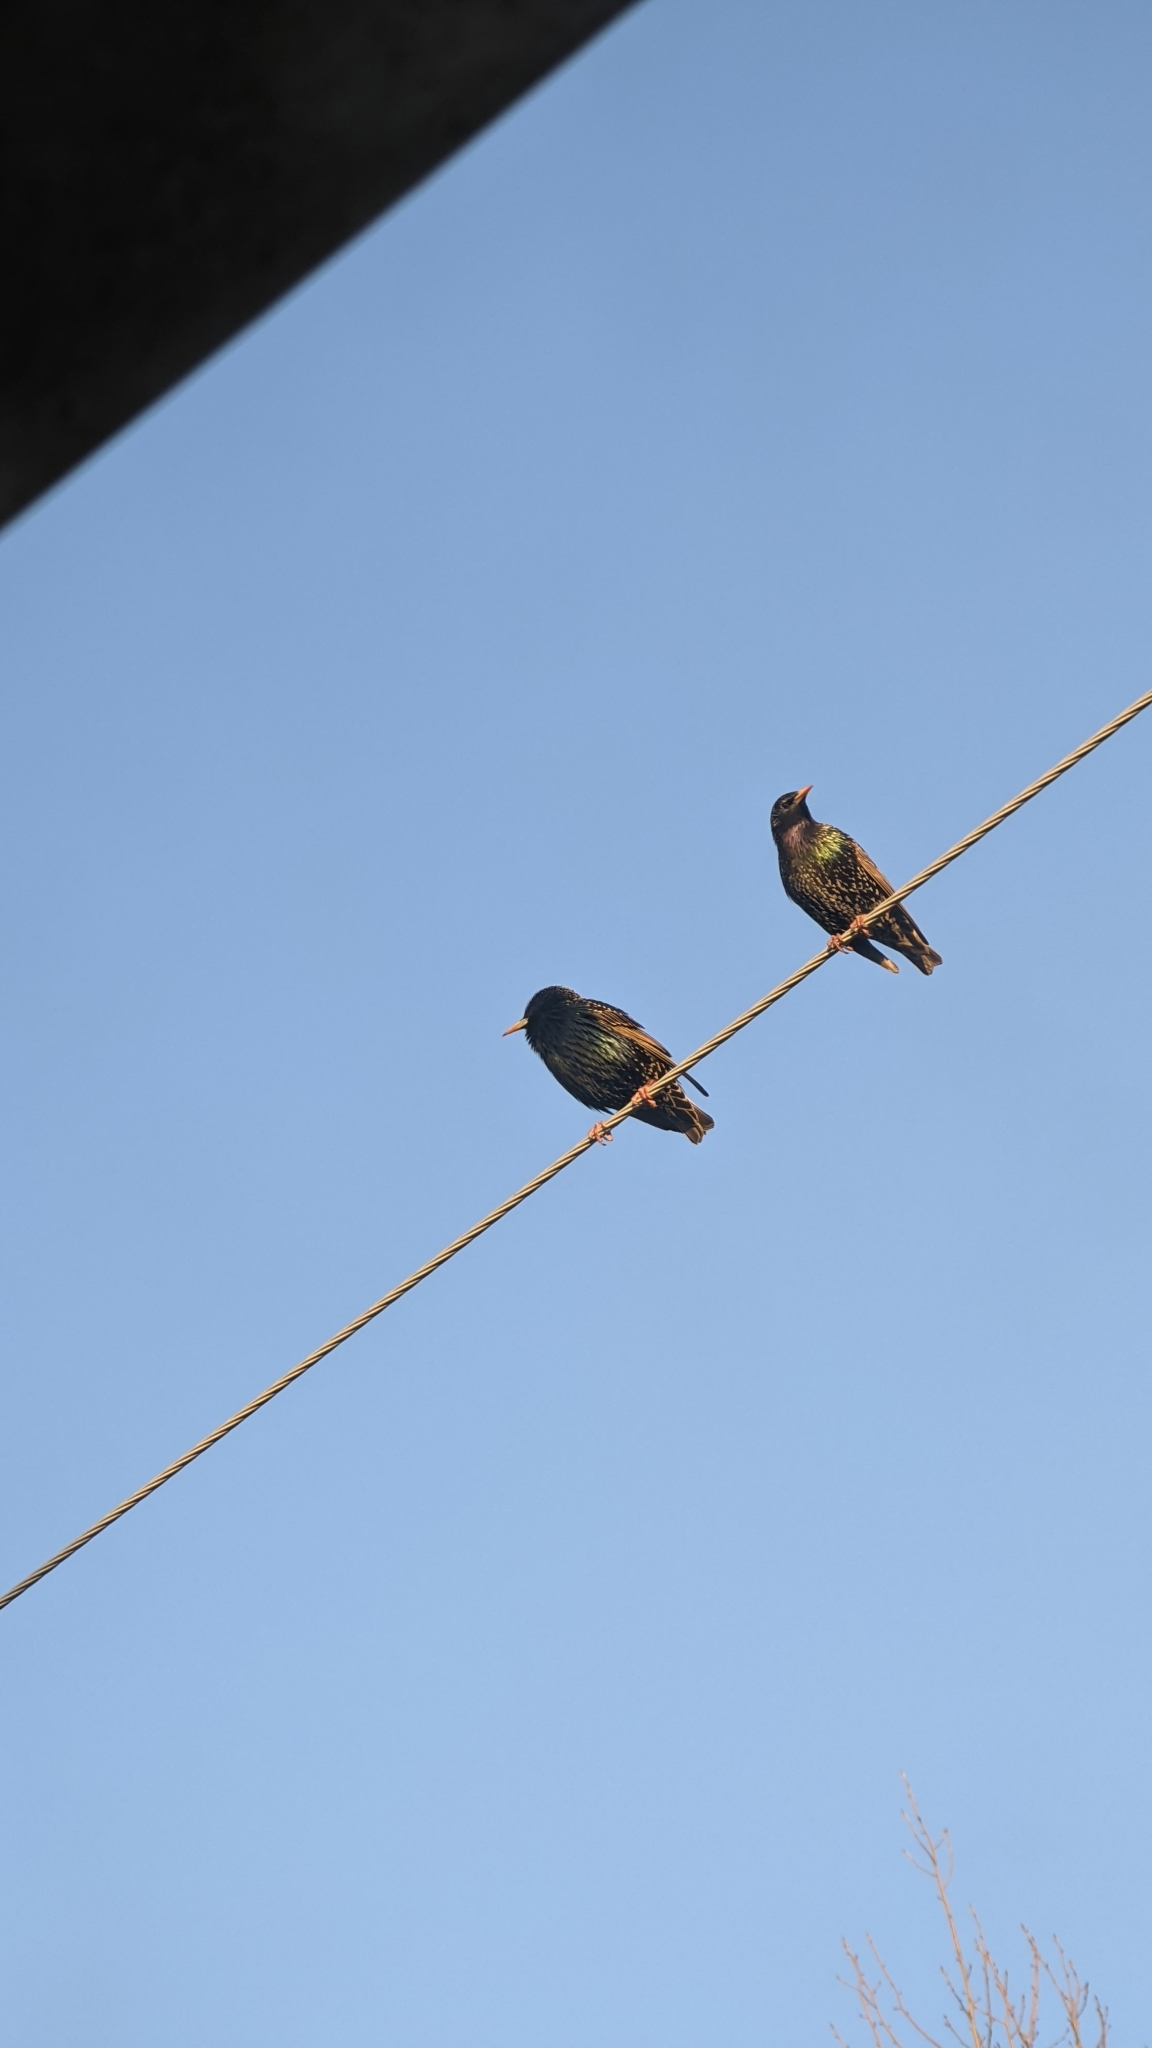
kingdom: Animalia
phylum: Chordata
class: Aves
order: Passeriformes
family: Sturnidae
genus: Sturnus
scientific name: Sturnus vulgaris
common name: Common starling
